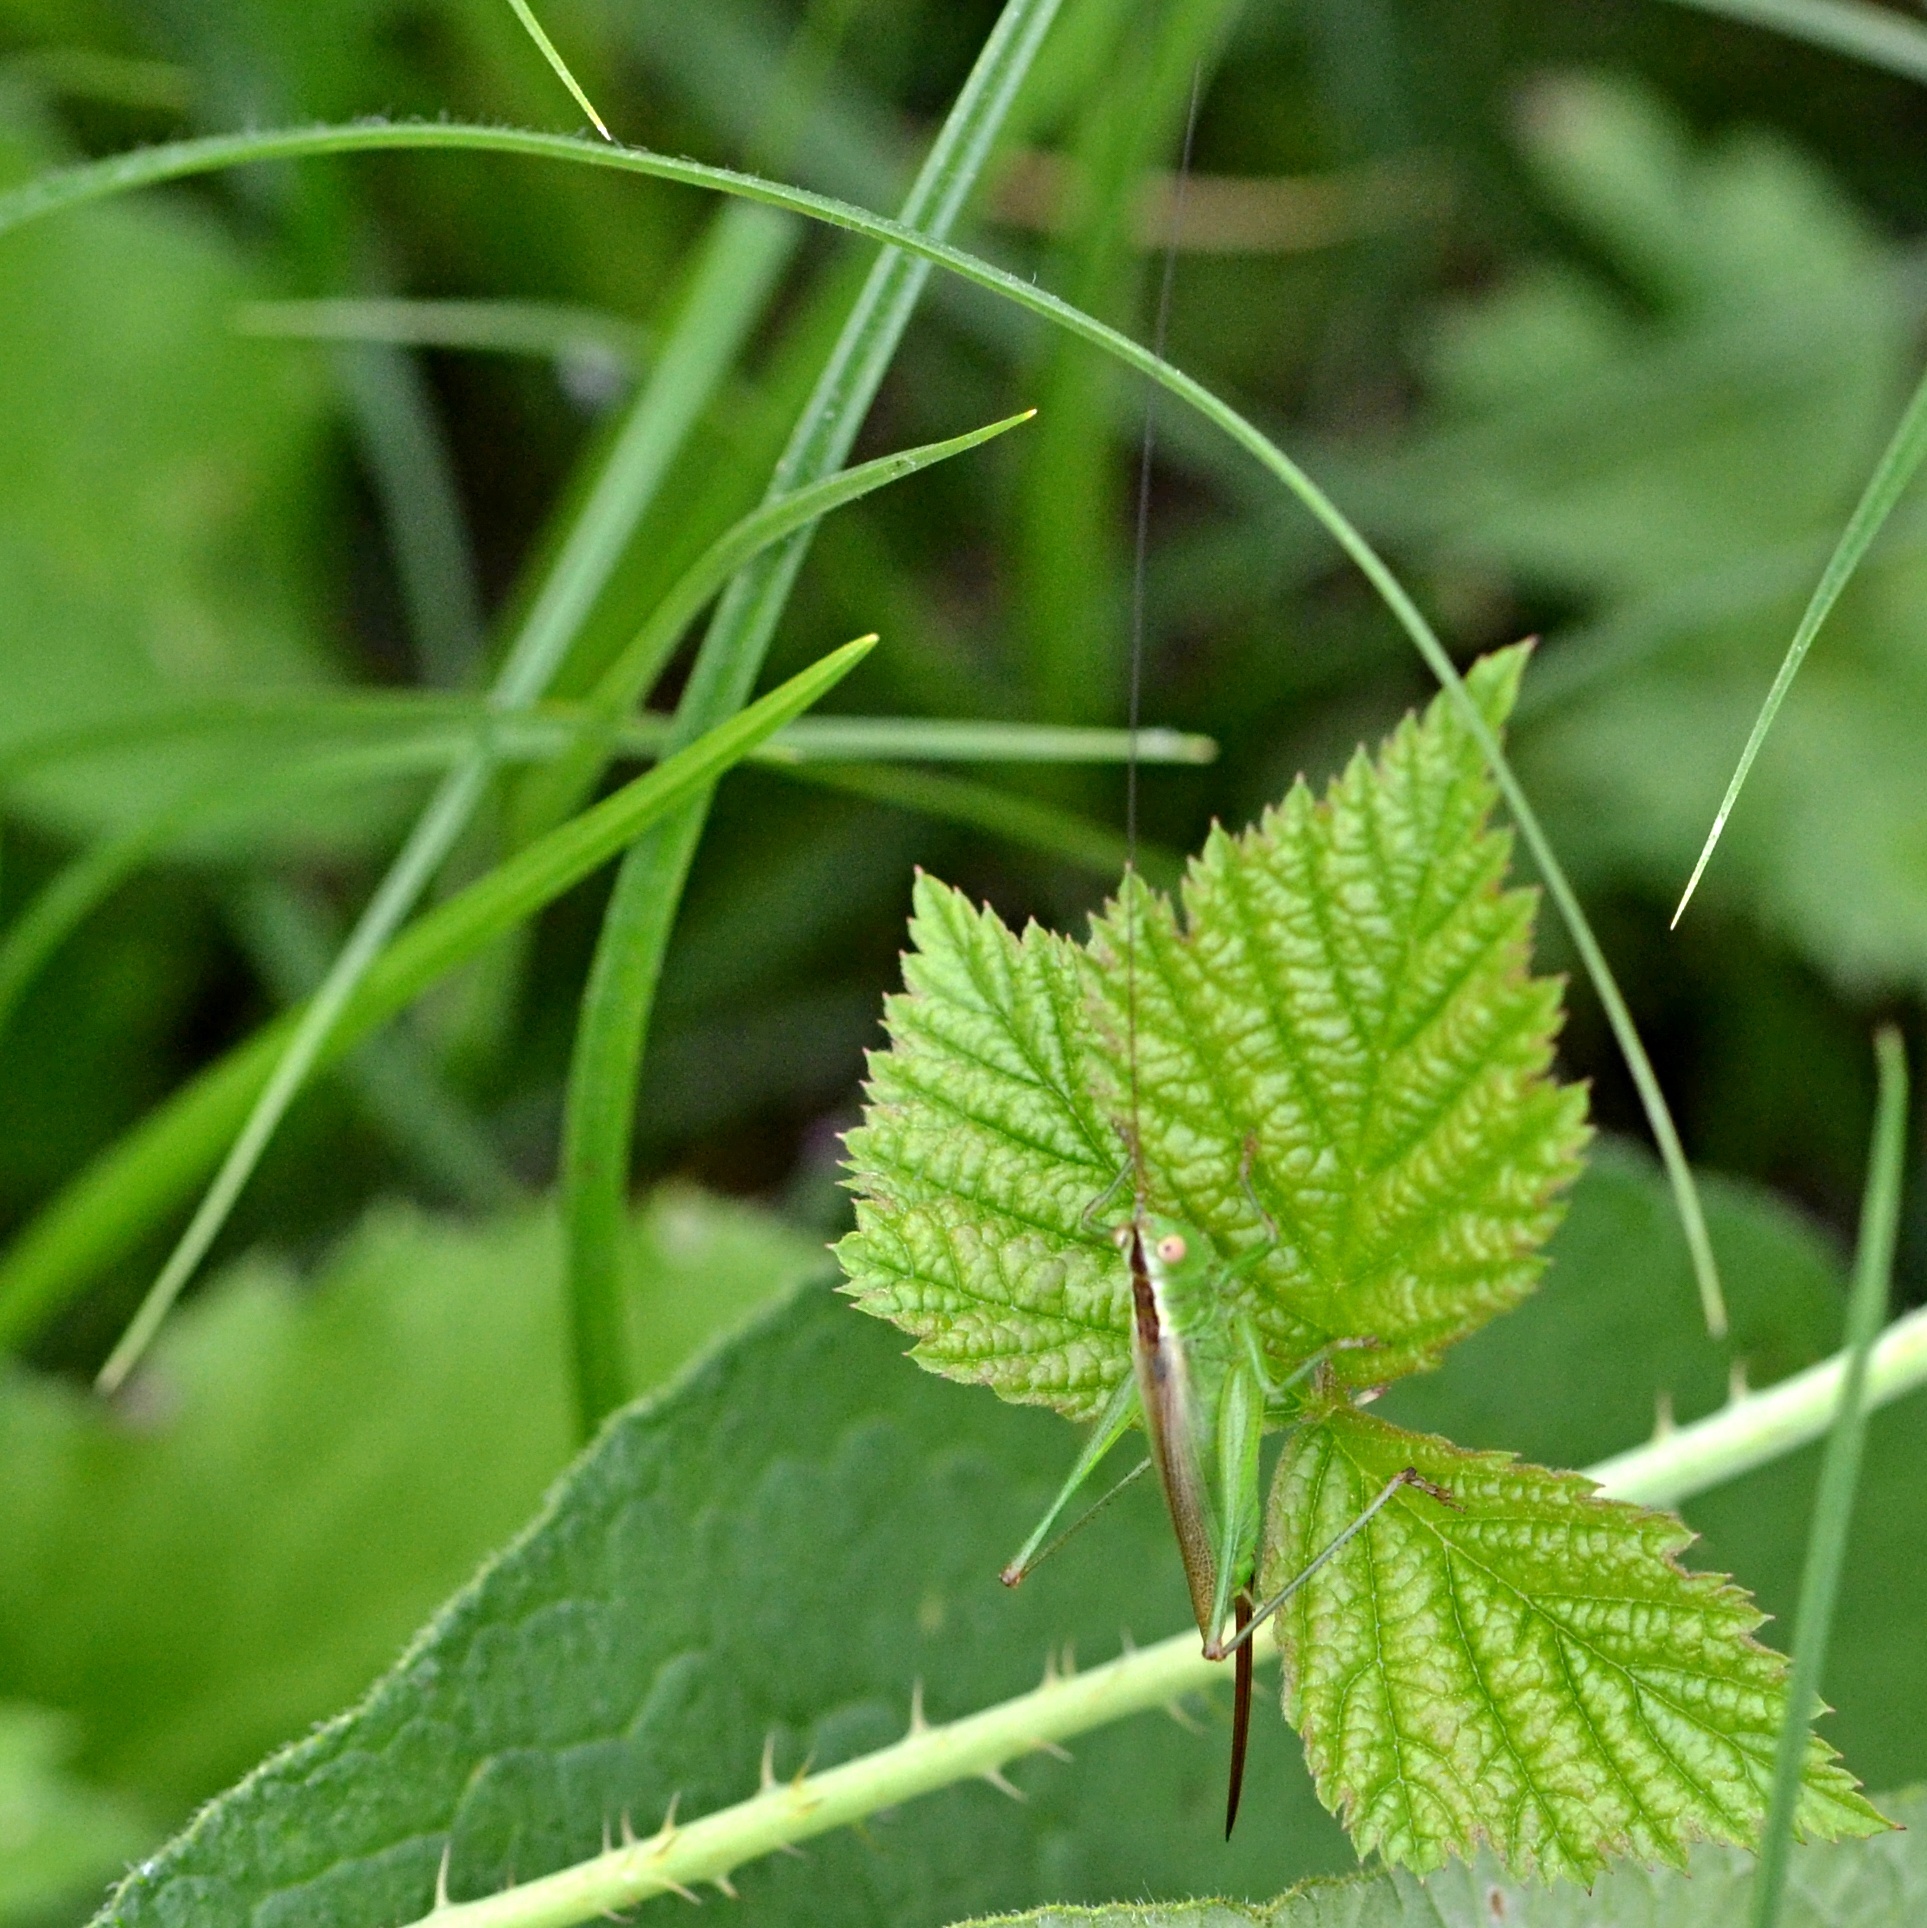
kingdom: Animalia
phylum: Arthropoda
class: Insecta
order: Orthoptera
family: Tettigoniidae
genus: Conocephalus
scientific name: Conocephalus fuscus
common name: Long-winged conehead
